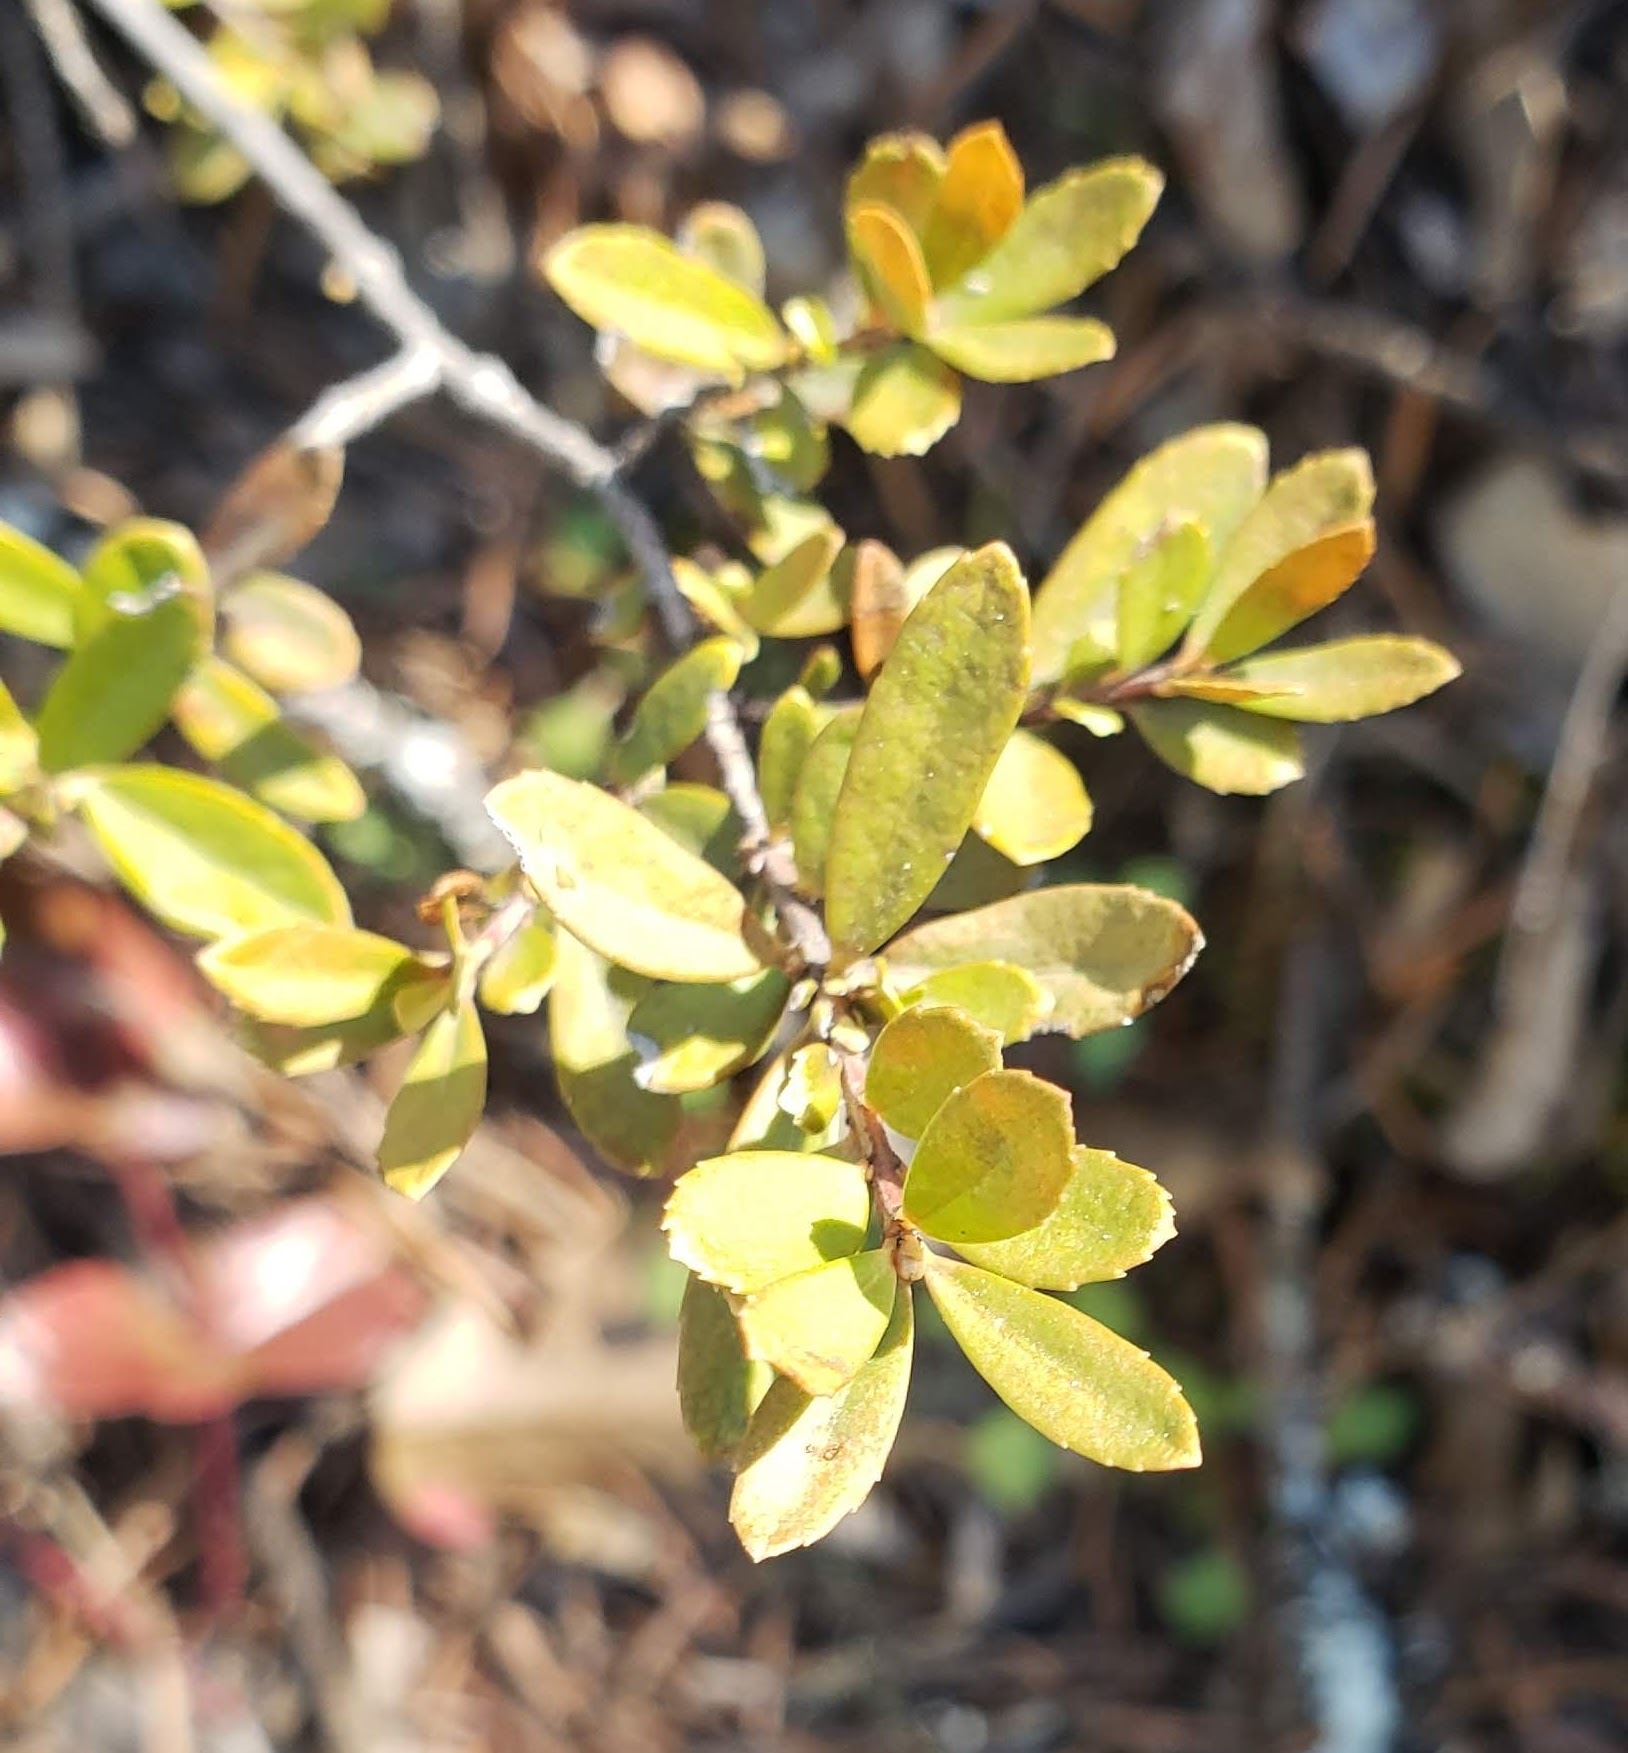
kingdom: Plantae
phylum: Tracheophyta
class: Magnoliopsida
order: Celastrales
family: Celastraceae
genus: Paxistima
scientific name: Paxistima myrsinites
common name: Mountain-lover
